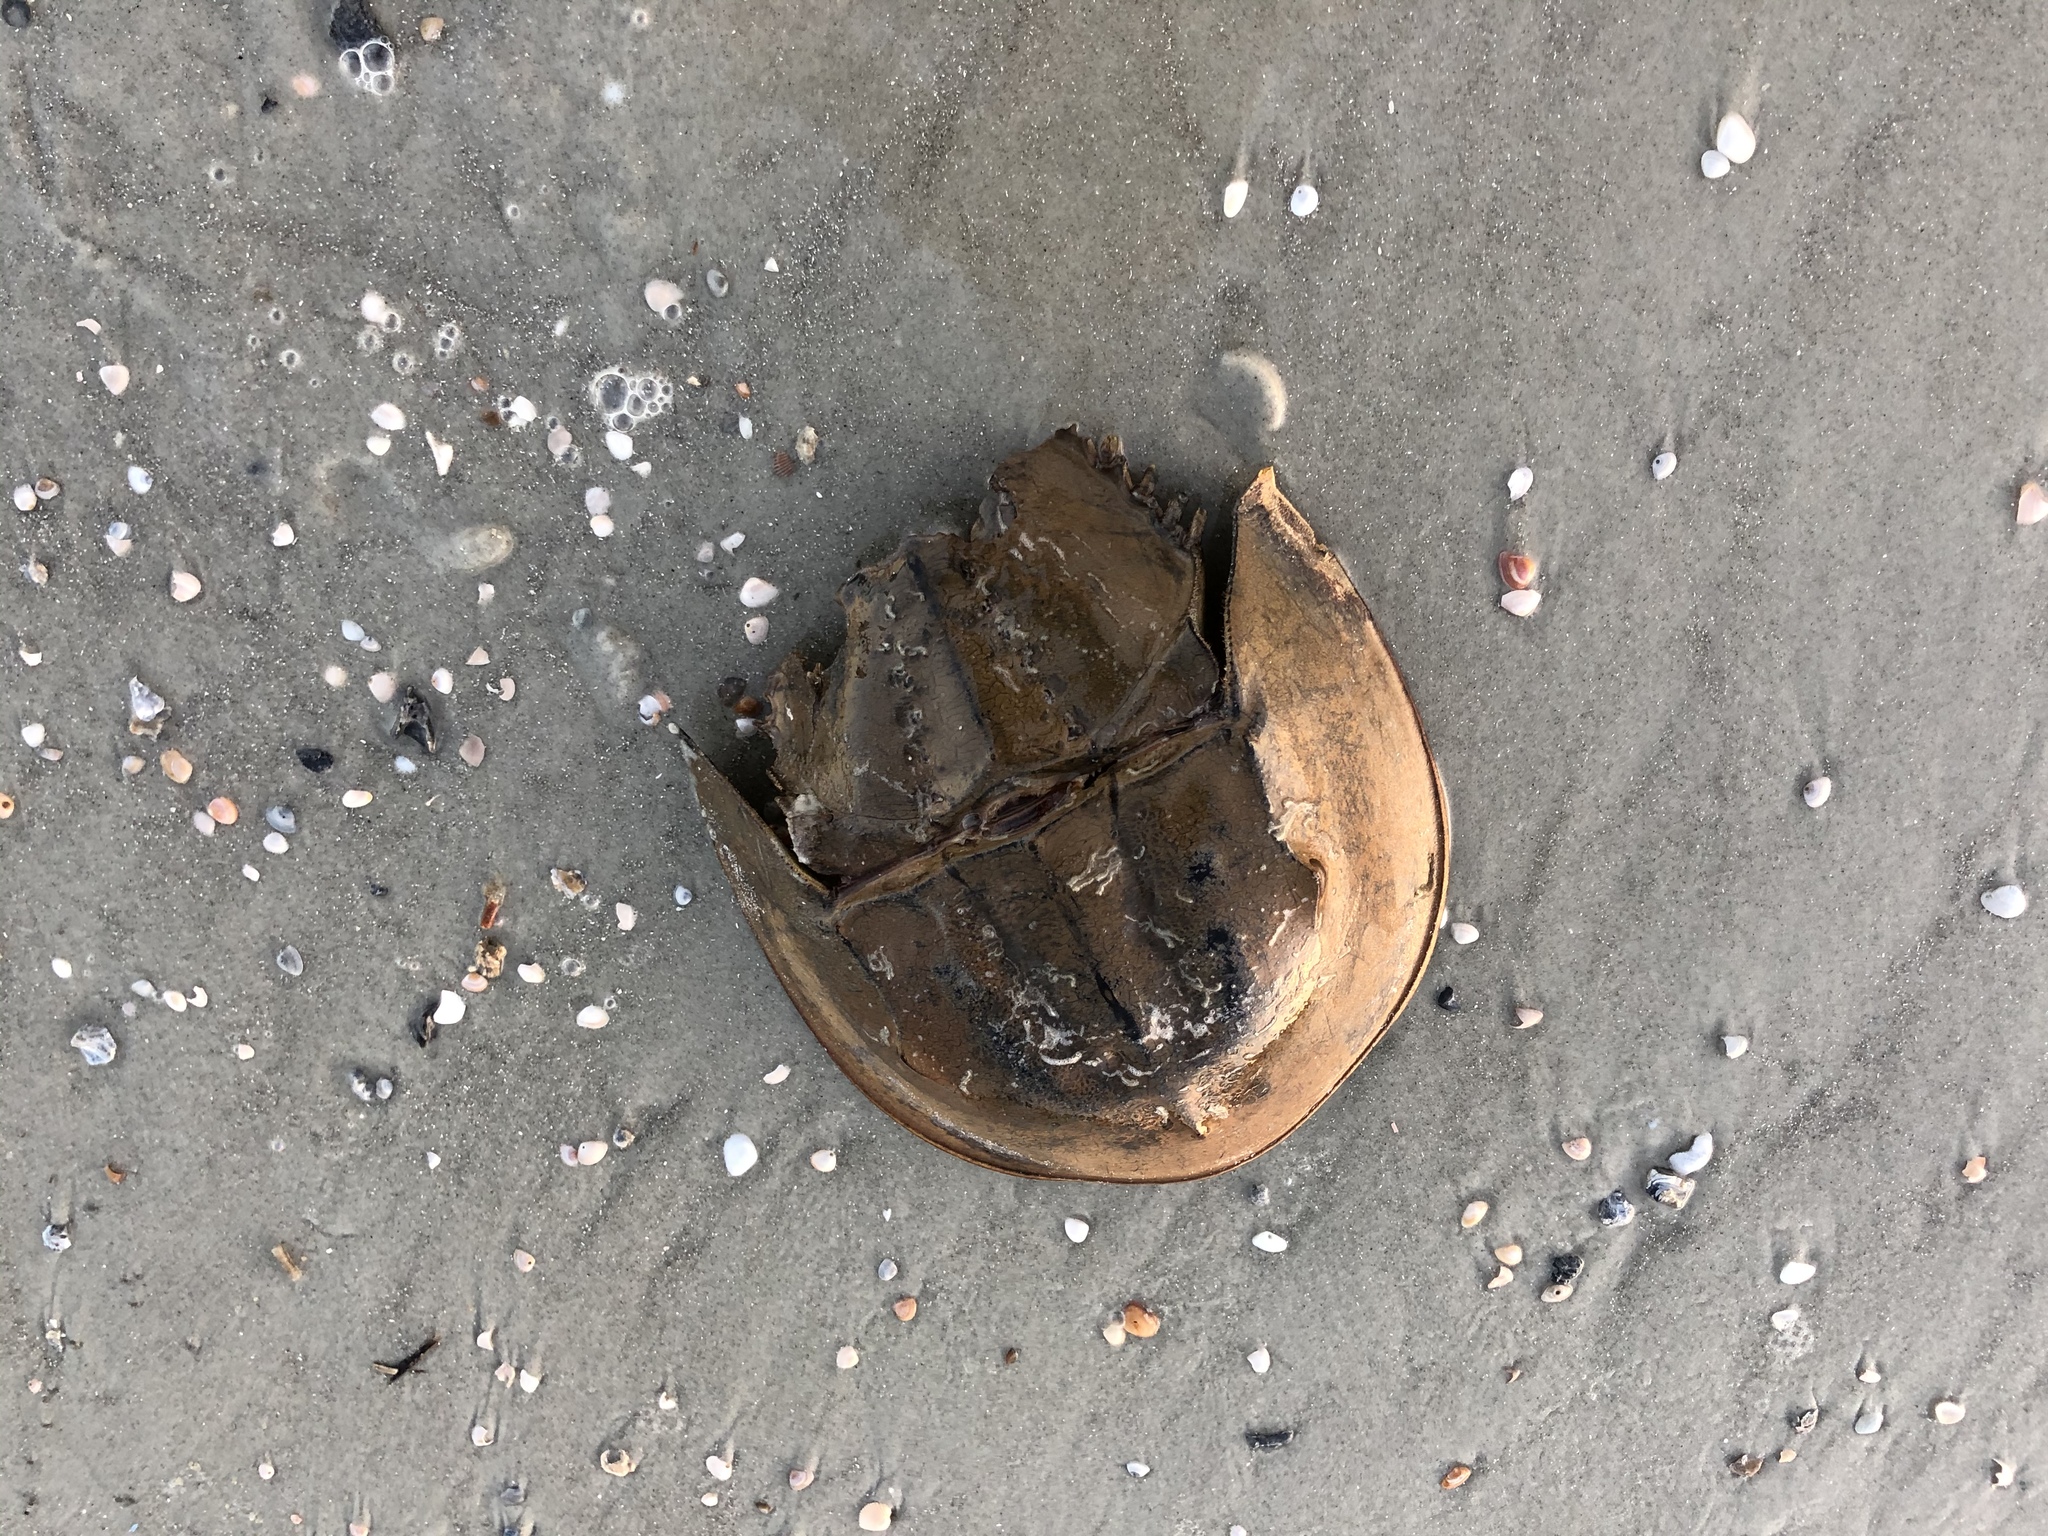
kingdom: Animalia
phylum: Arthropoda
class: Merostomata
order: Xiphosurida
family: Limulidae
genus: Limulus
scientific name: Limulus polyphemus
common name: Horseshoe crab
